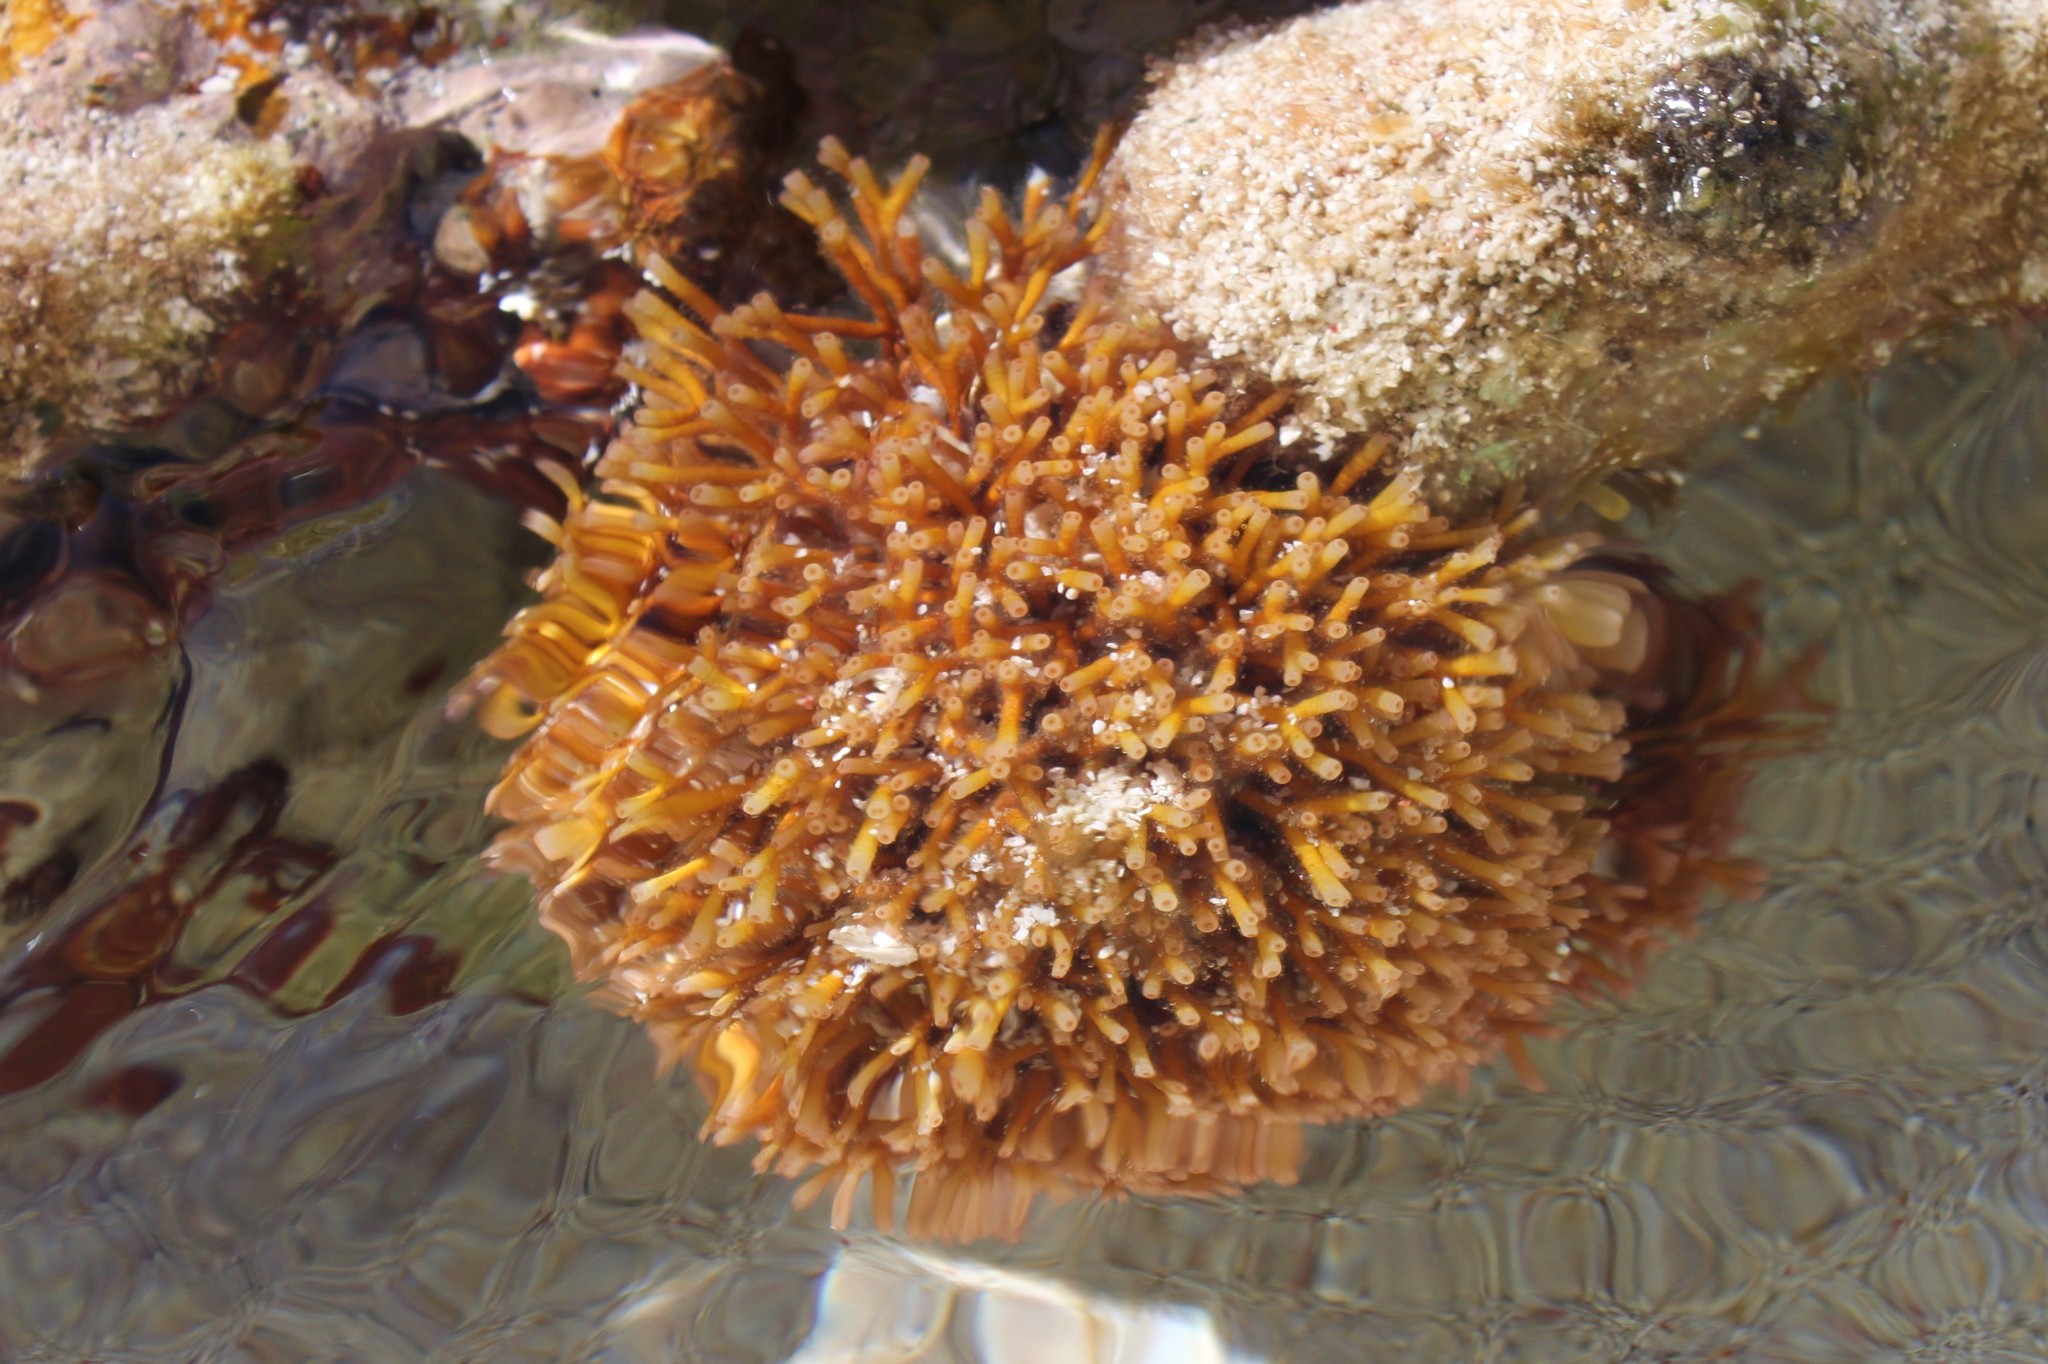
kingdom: Plantae
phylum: Rhodophyta
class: Florideophyceae
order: Nemaliales
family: Galaxauraceae
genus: Galaxaura
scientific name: Galaxaura rugosa
